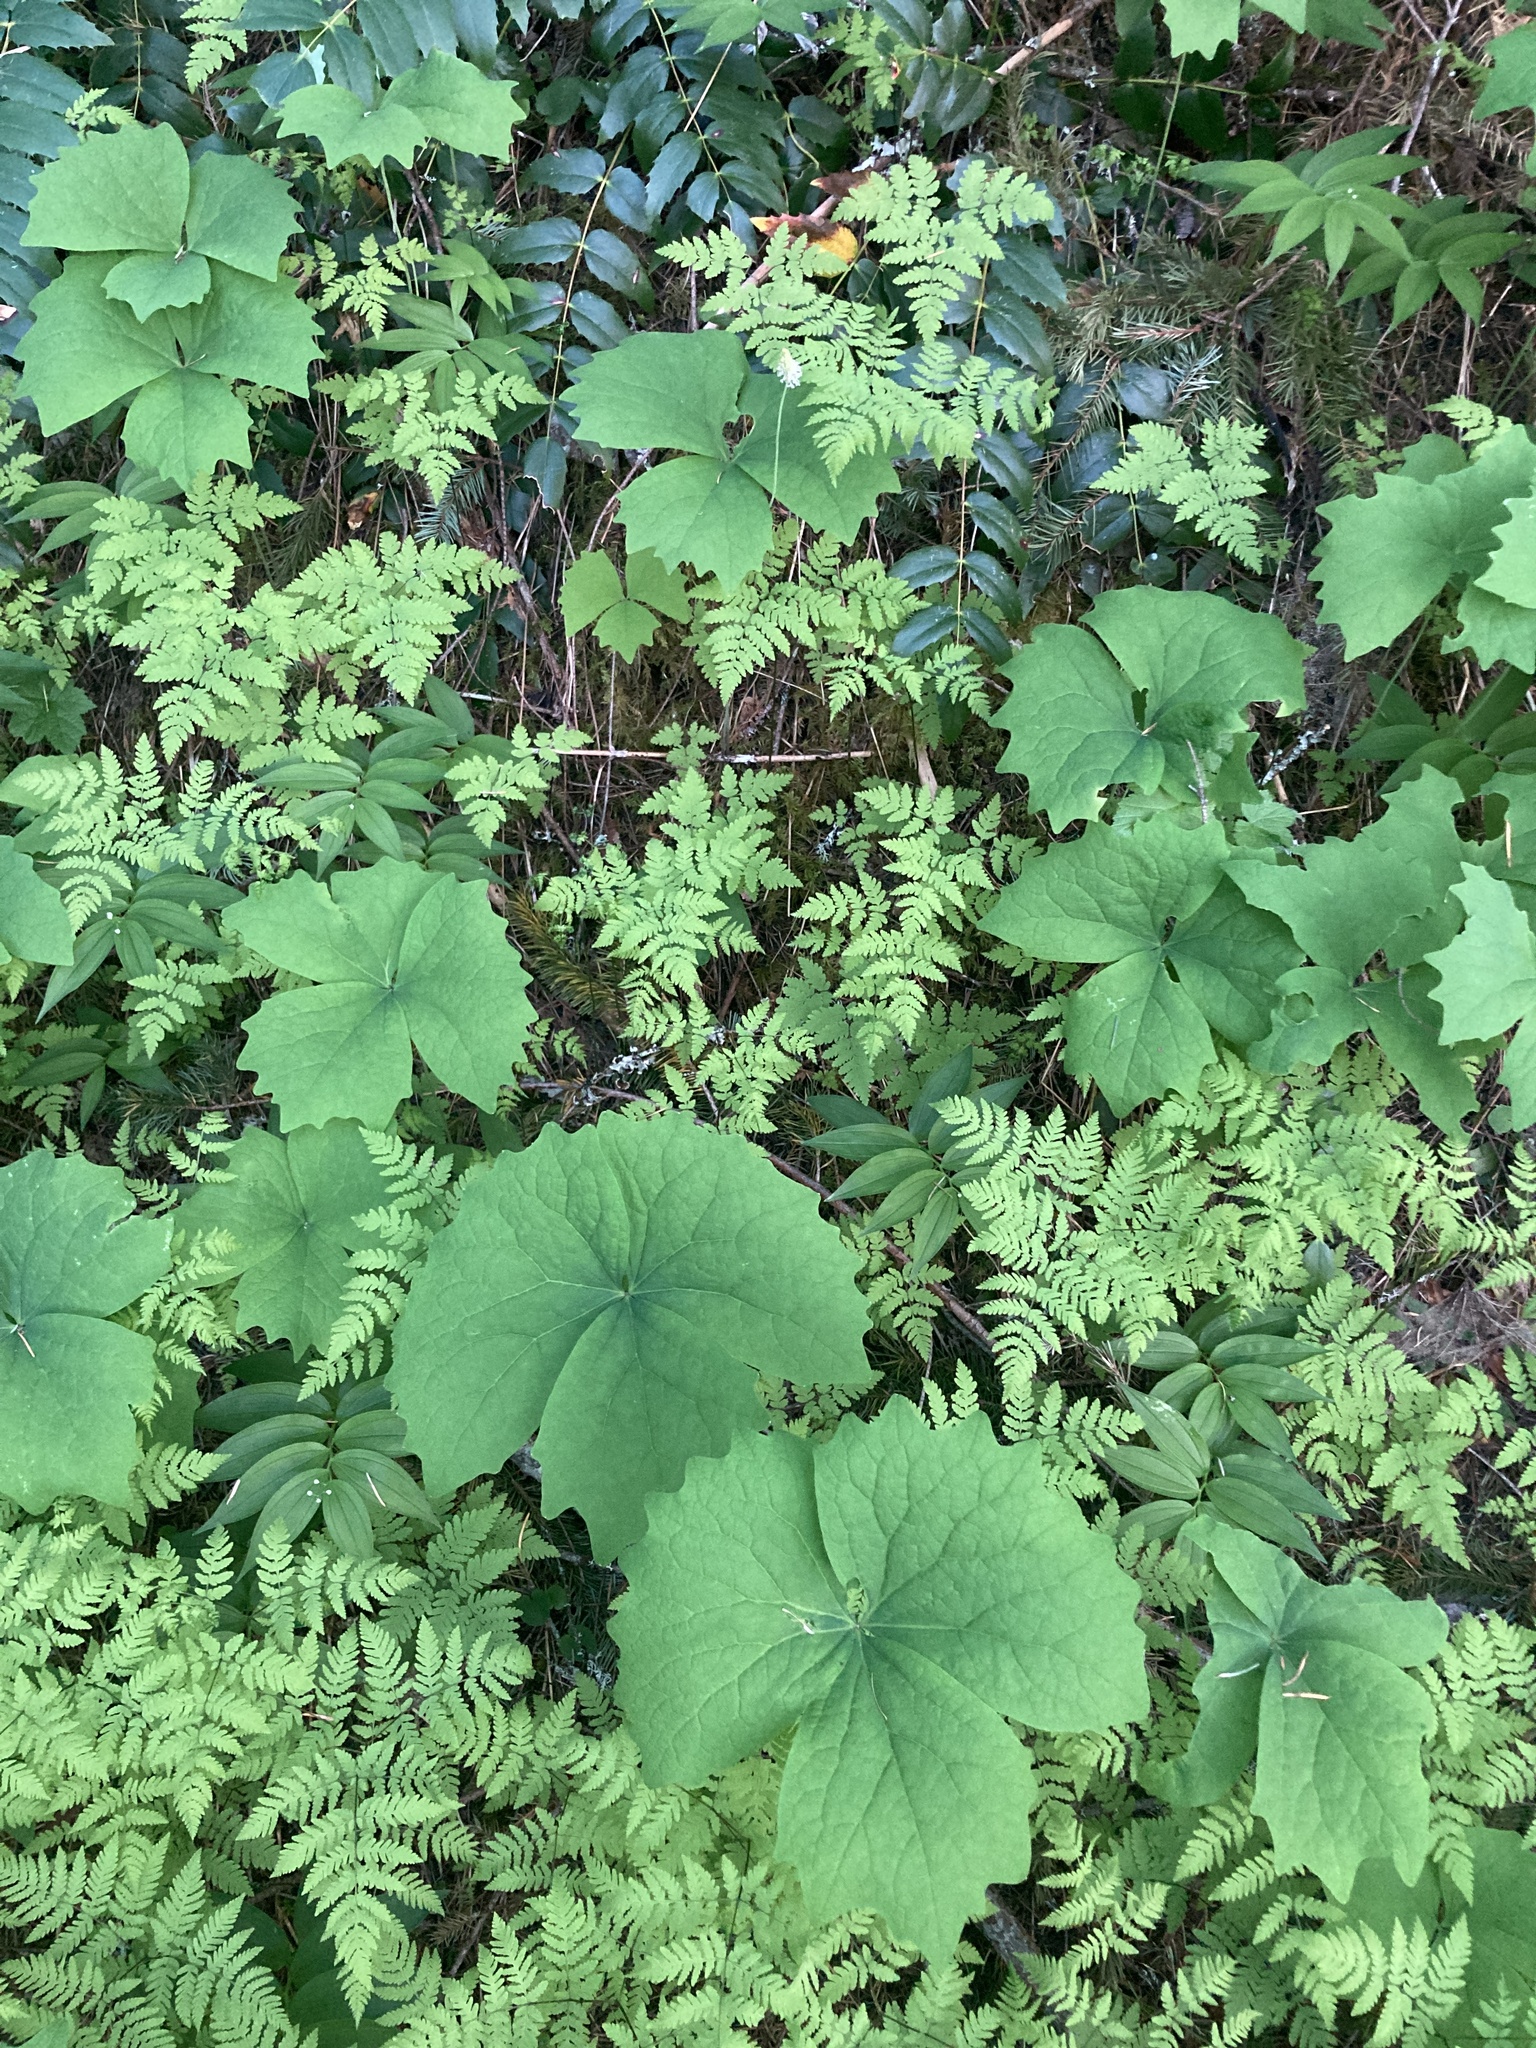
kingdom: Plantae
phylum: Tracheophyta
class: Magnoliopsida
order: Ranunculales
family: Berberidaceae
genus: Achlys
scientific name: Achlys californica
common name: California deer-foot
